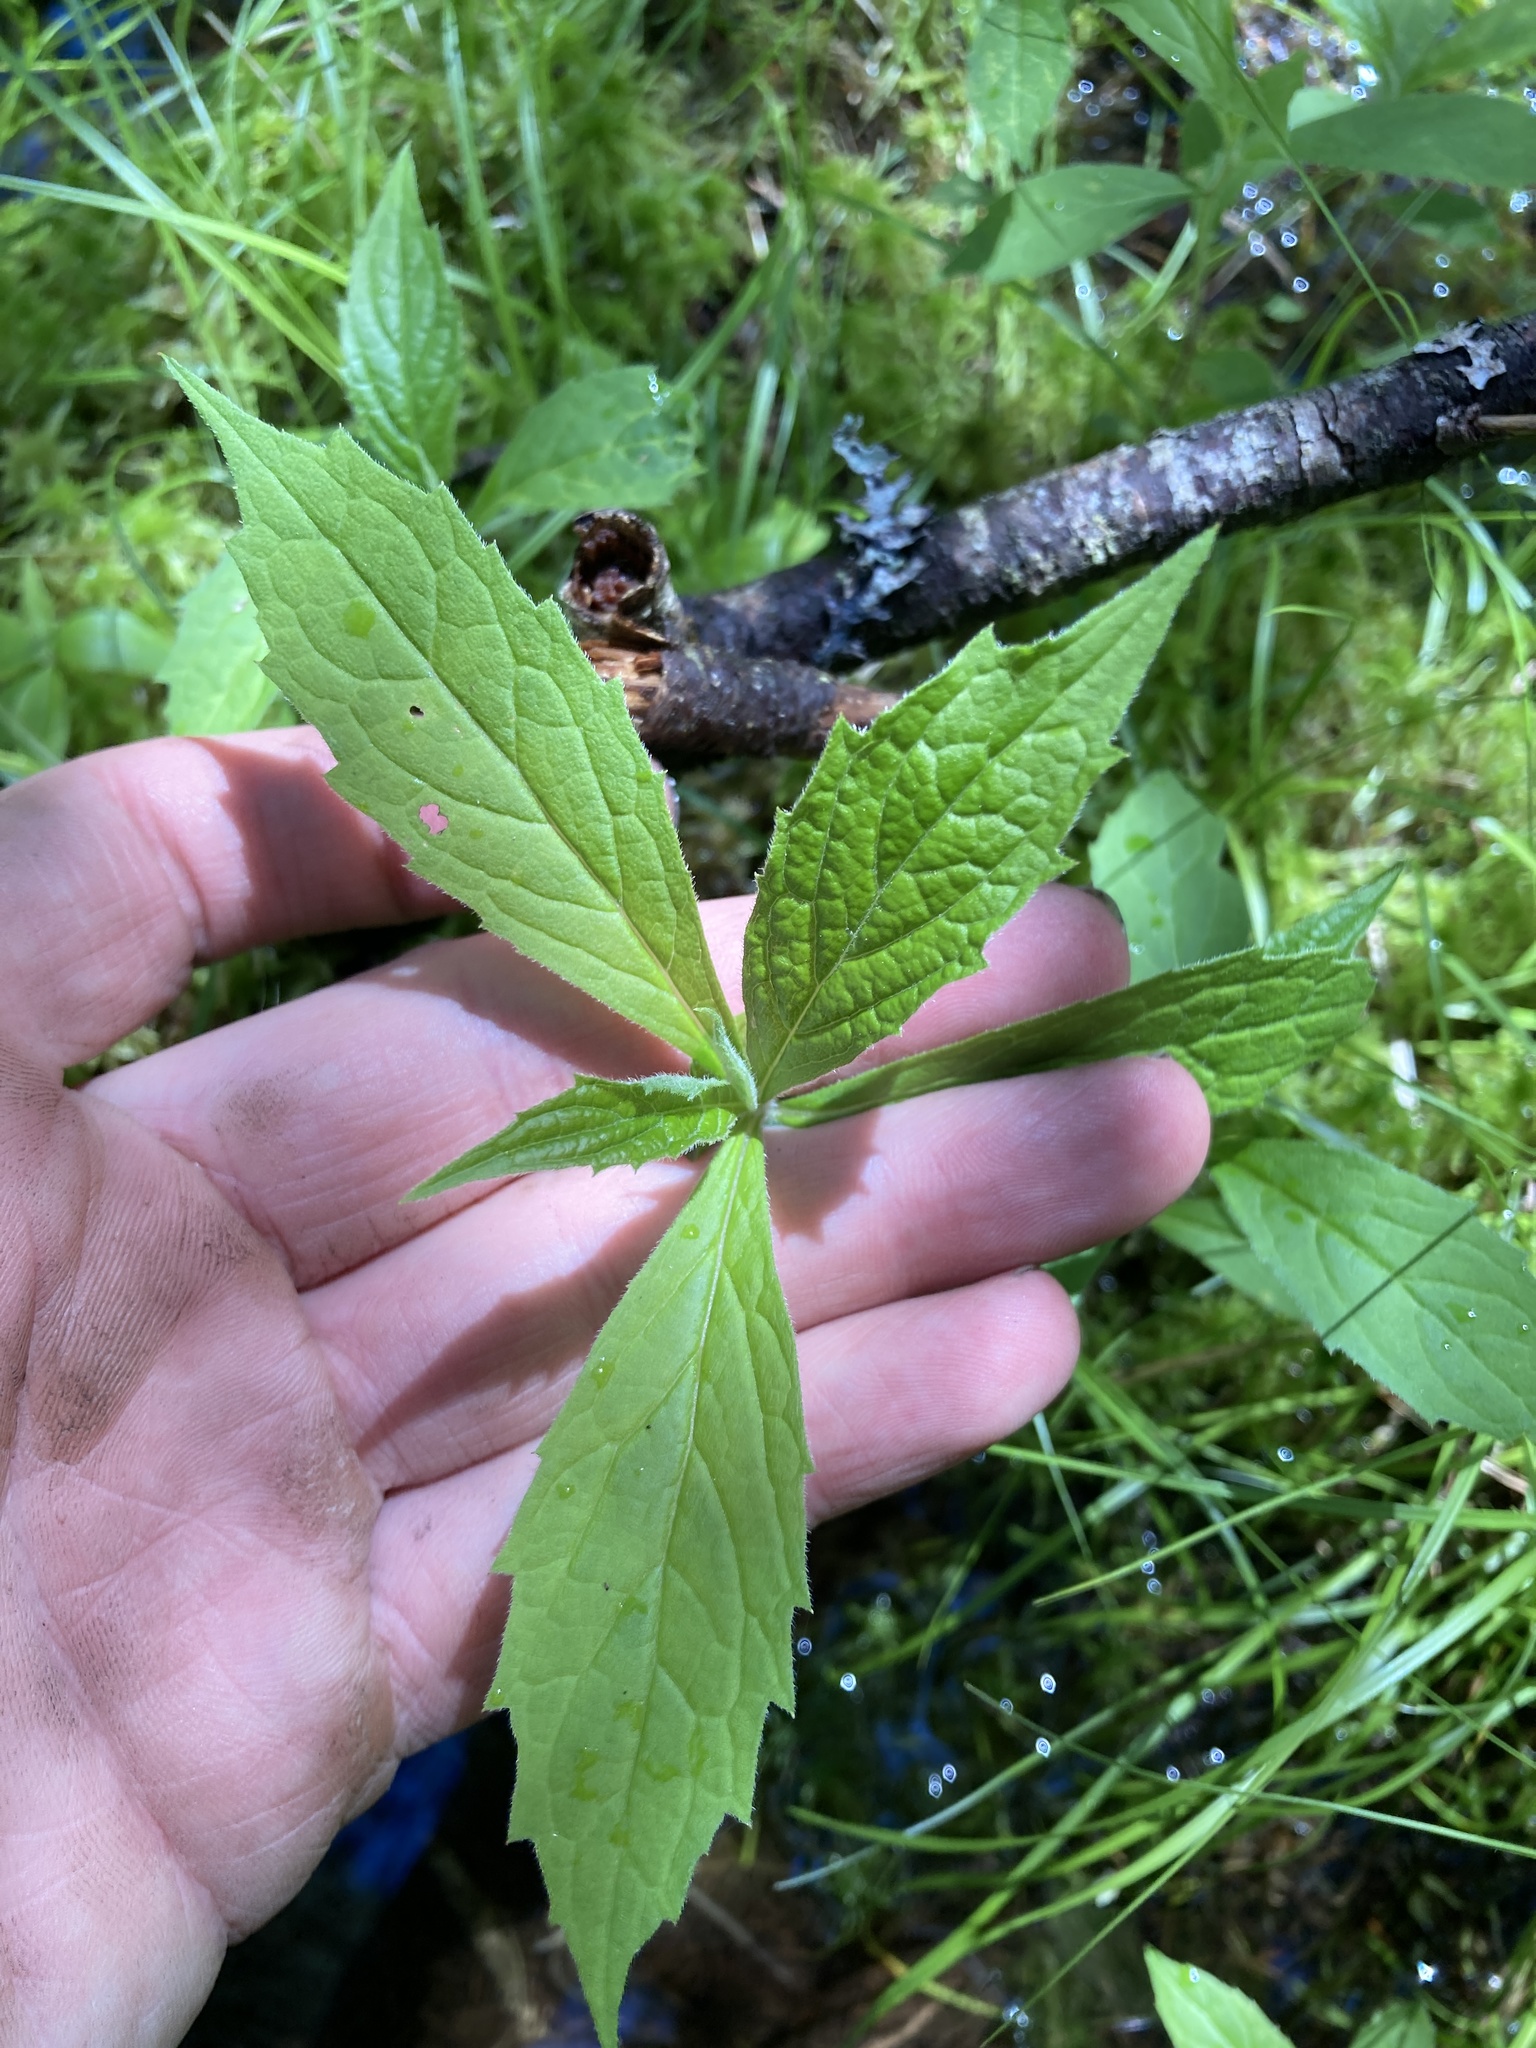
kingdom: Plantae
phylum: Tracheophyta
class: Magnoliopsida
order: Asterales
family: Asteraceae
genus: Oclemena
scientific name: Oclemena acuminata
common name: Mountain aster
